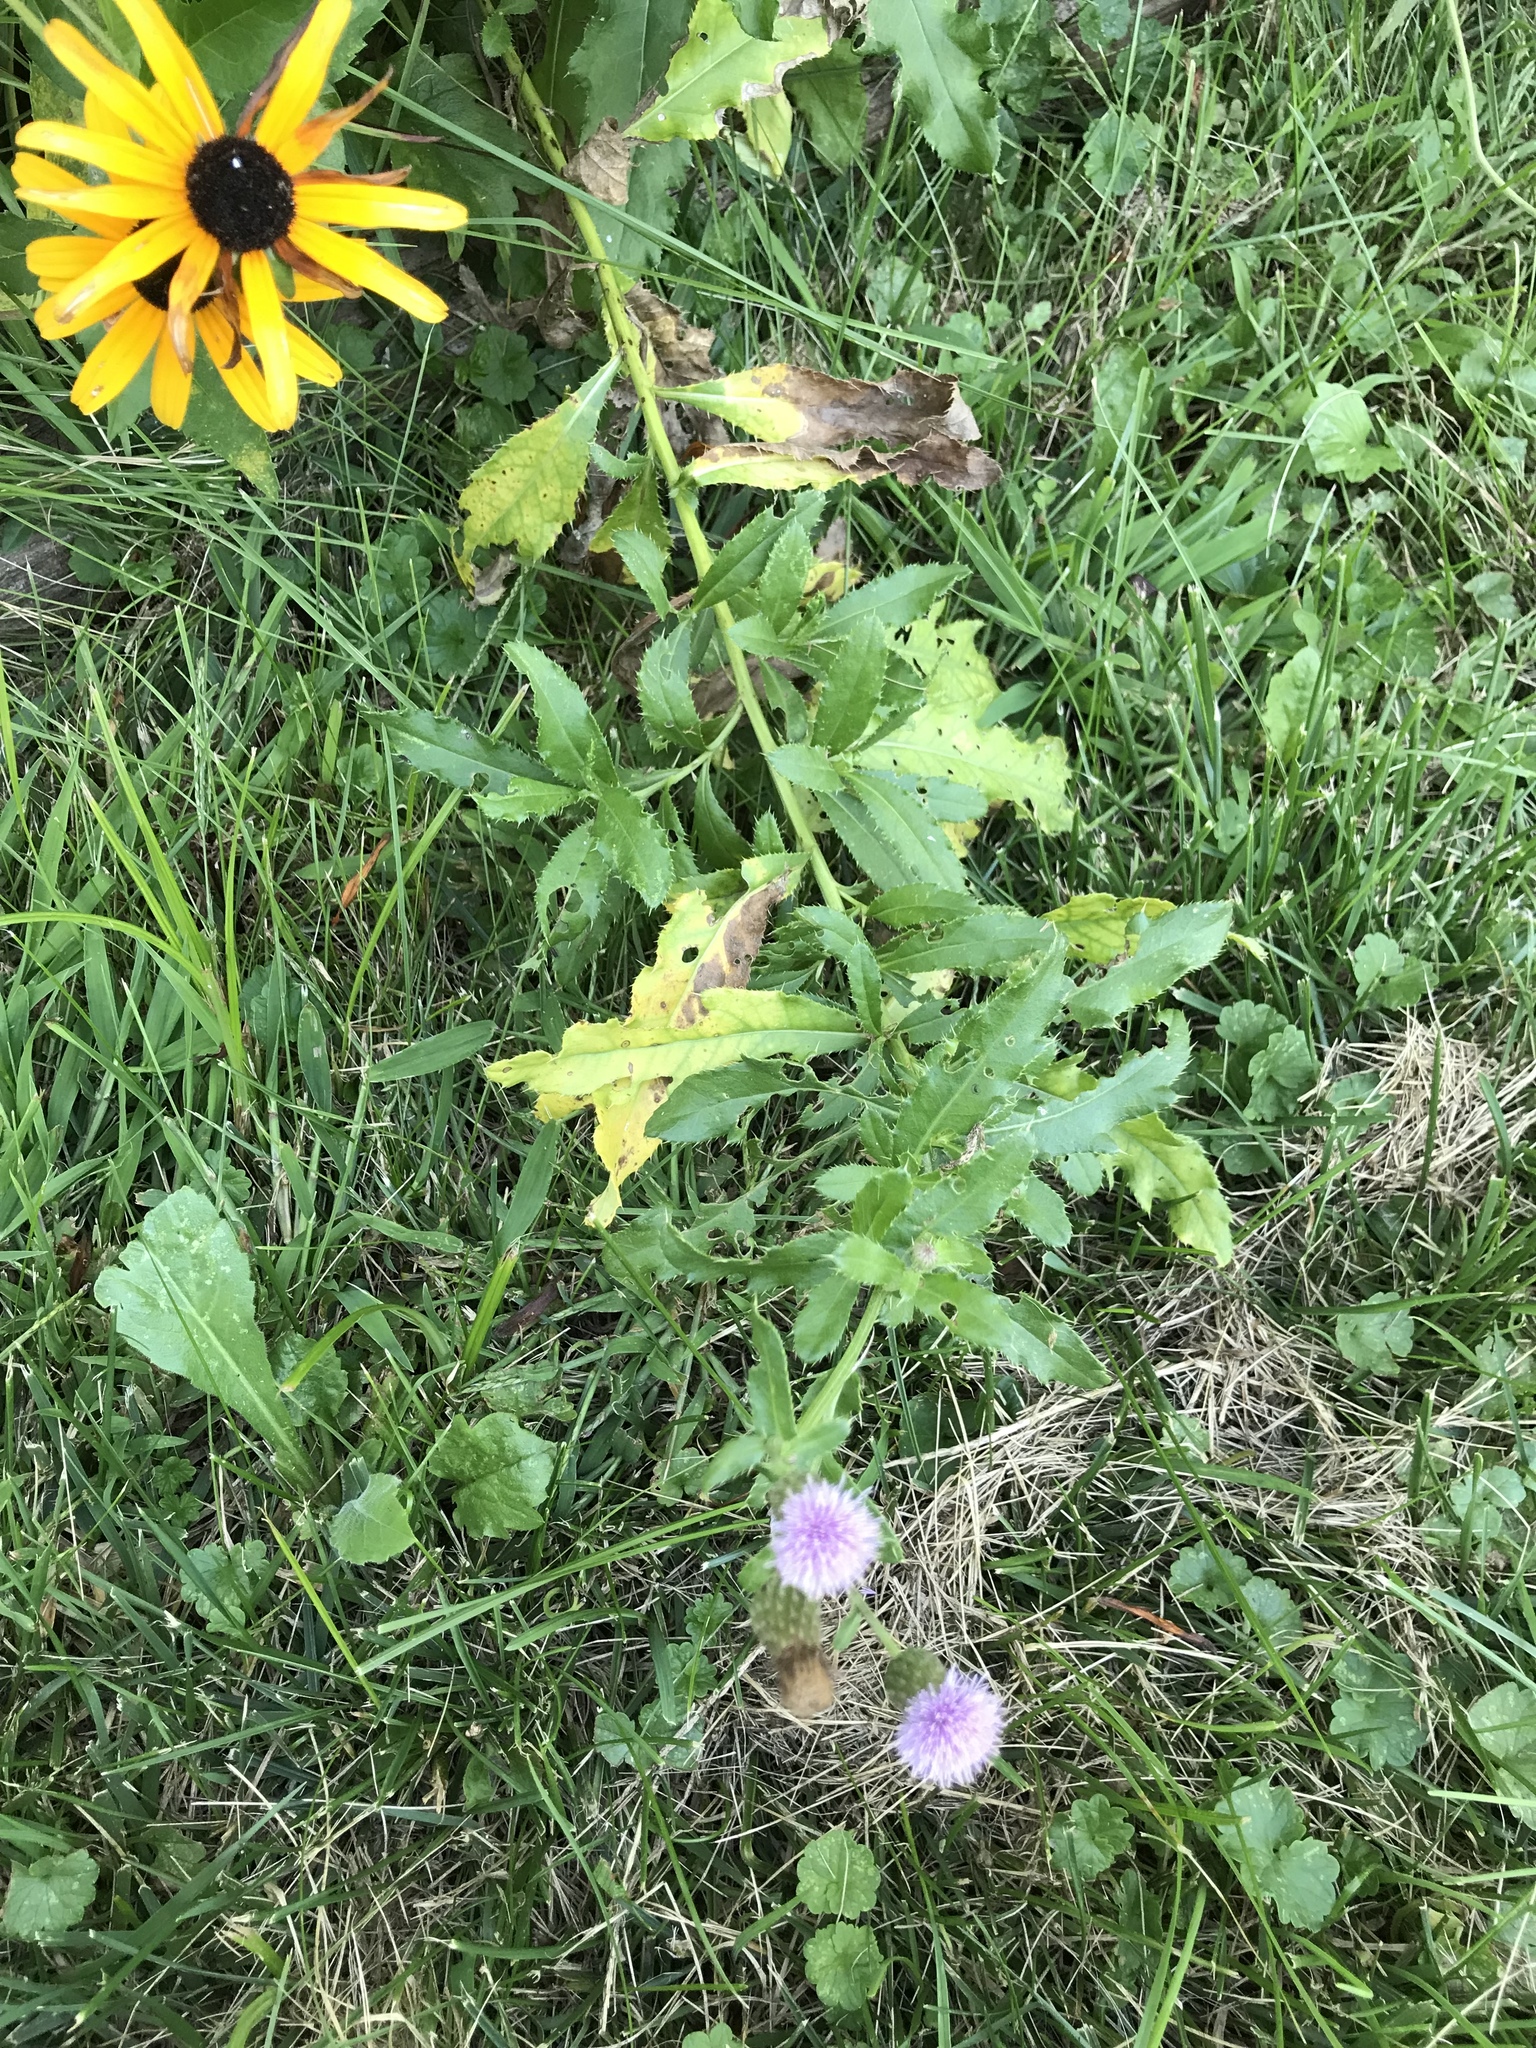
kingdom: Plantae
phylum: Tracheophyta
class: Magnoliopsida
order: Asterales
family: Asteraceae
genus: Cirsium
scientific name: Cirsium arvense
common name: Creeping thistle
